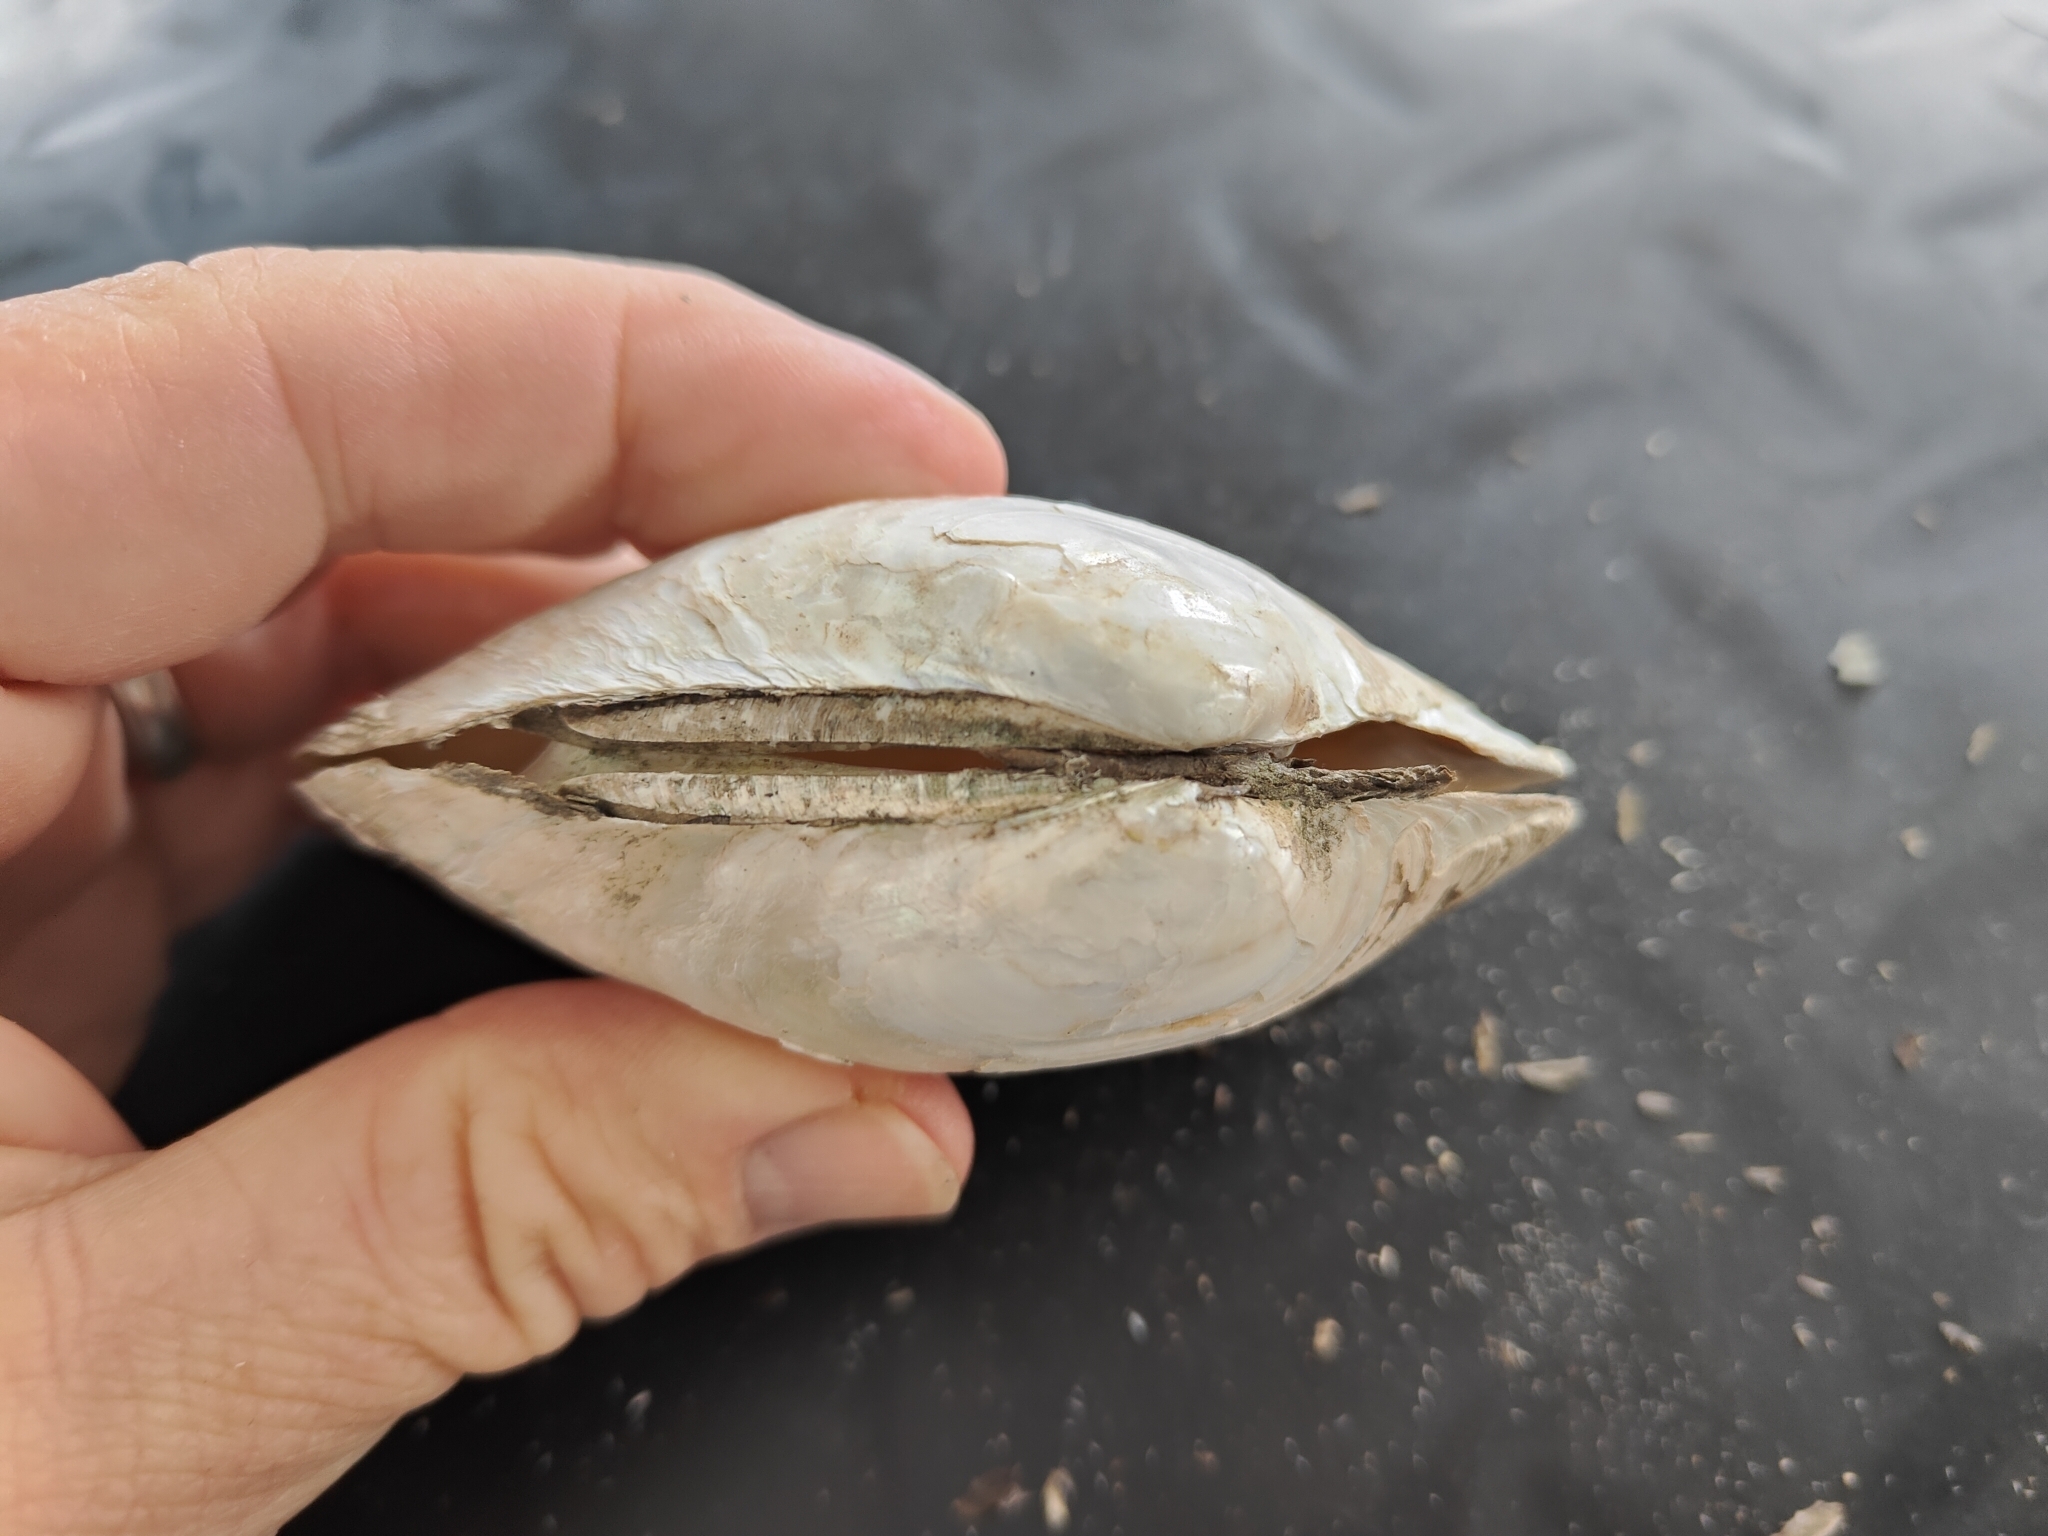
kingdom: Animalia
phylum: Mollusca
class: Bivalvia
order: Unionida
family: Unionidae
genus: Lampsilis
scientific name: Lampsilis cardium
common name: Plain pocketbook
